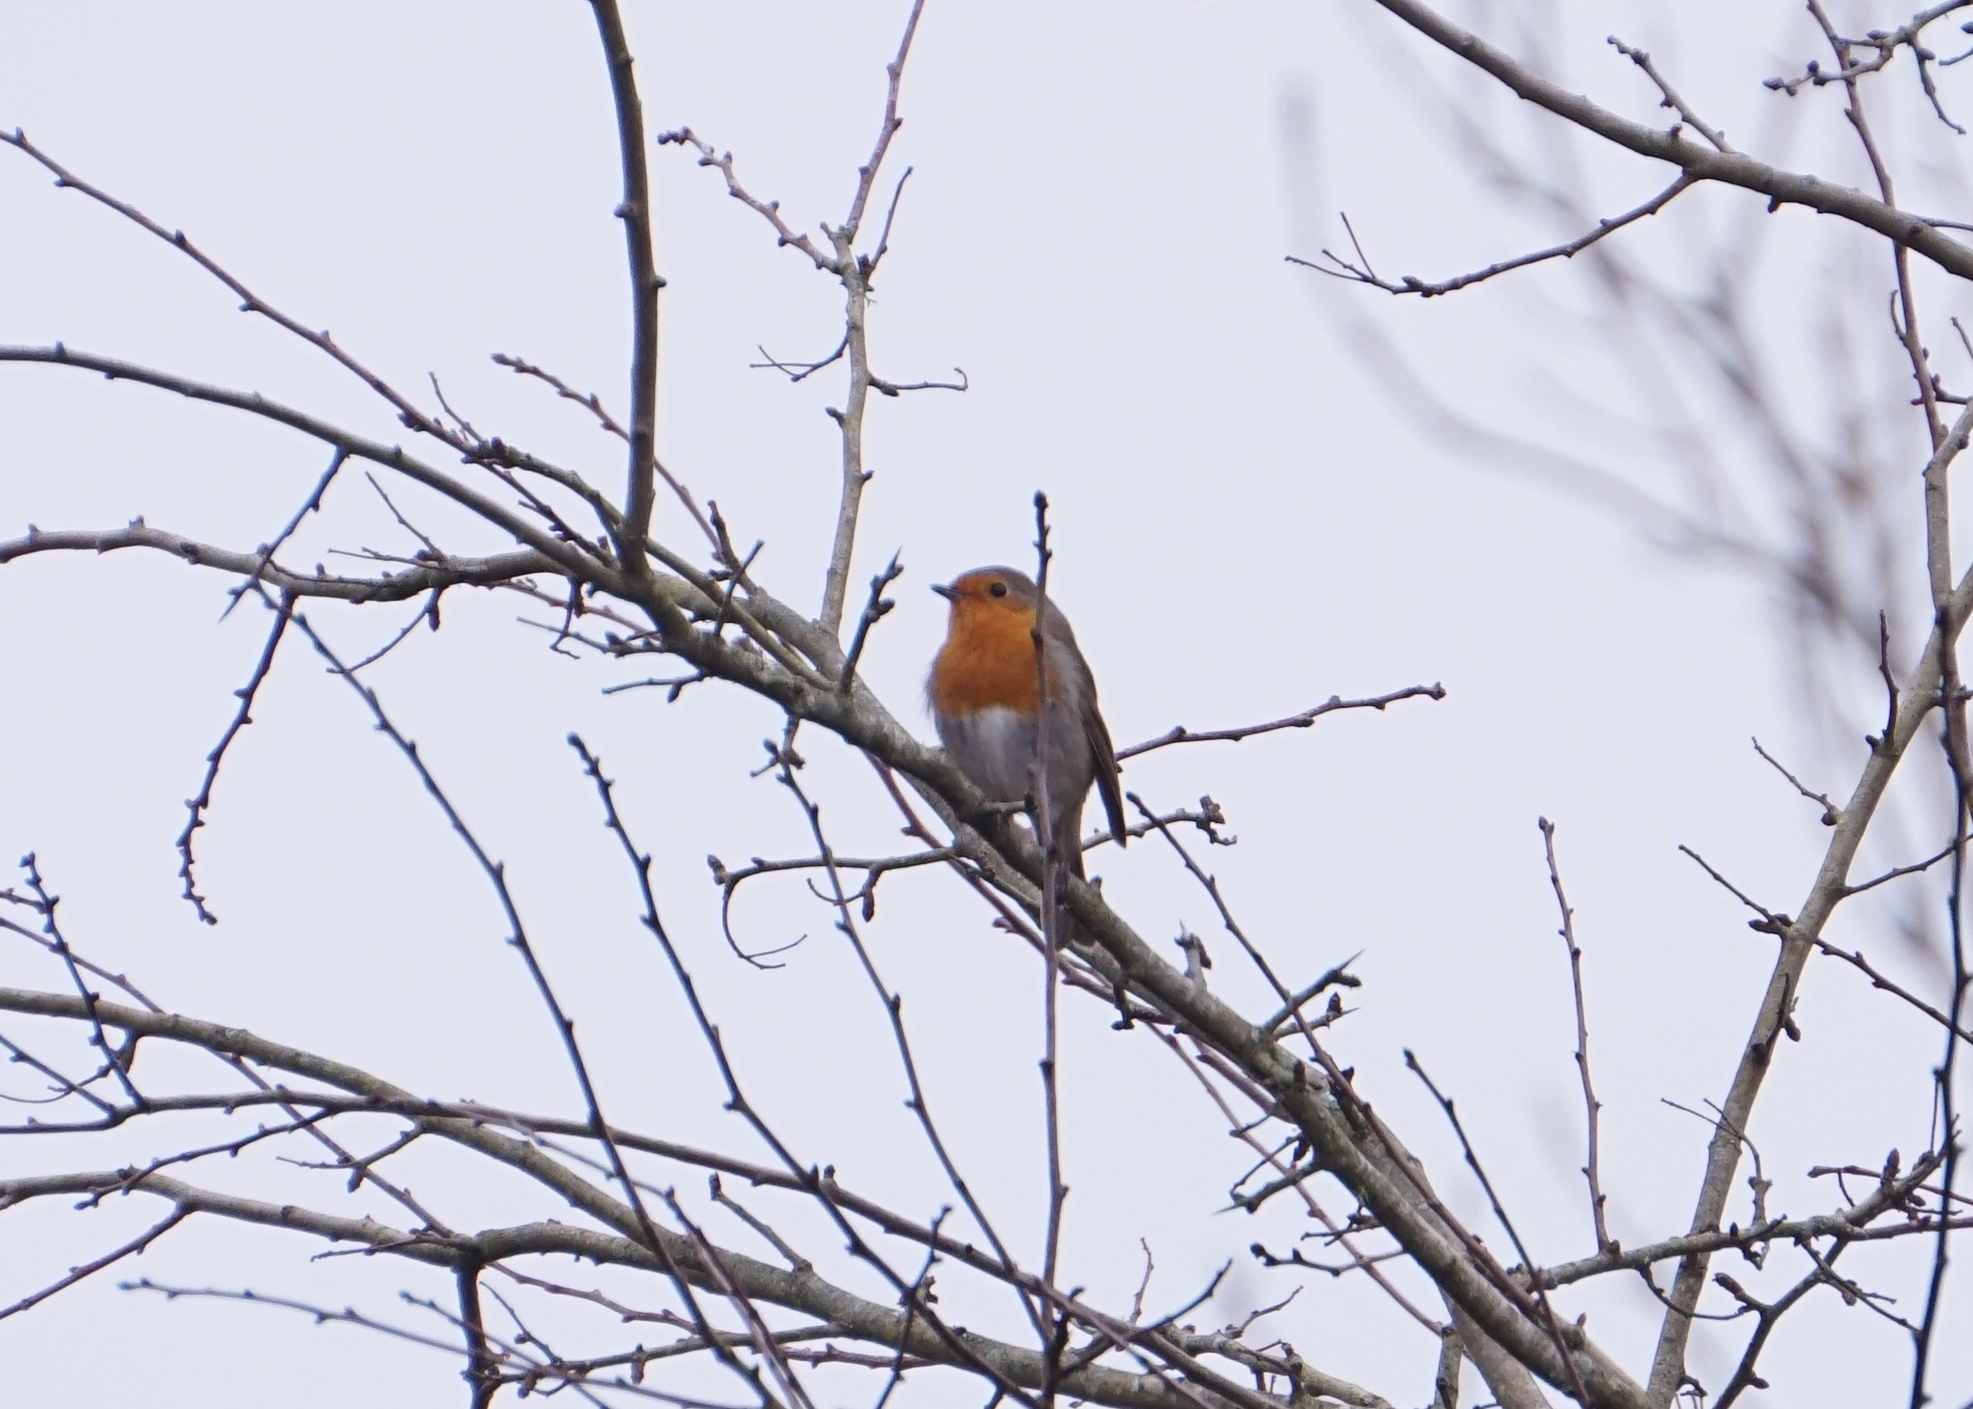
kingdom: Animalia
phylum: Chordata
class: Aves
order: Passeriformes
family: Muscicapidae
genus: Erithacus
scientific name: Erithacus rubecula
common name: European robin
